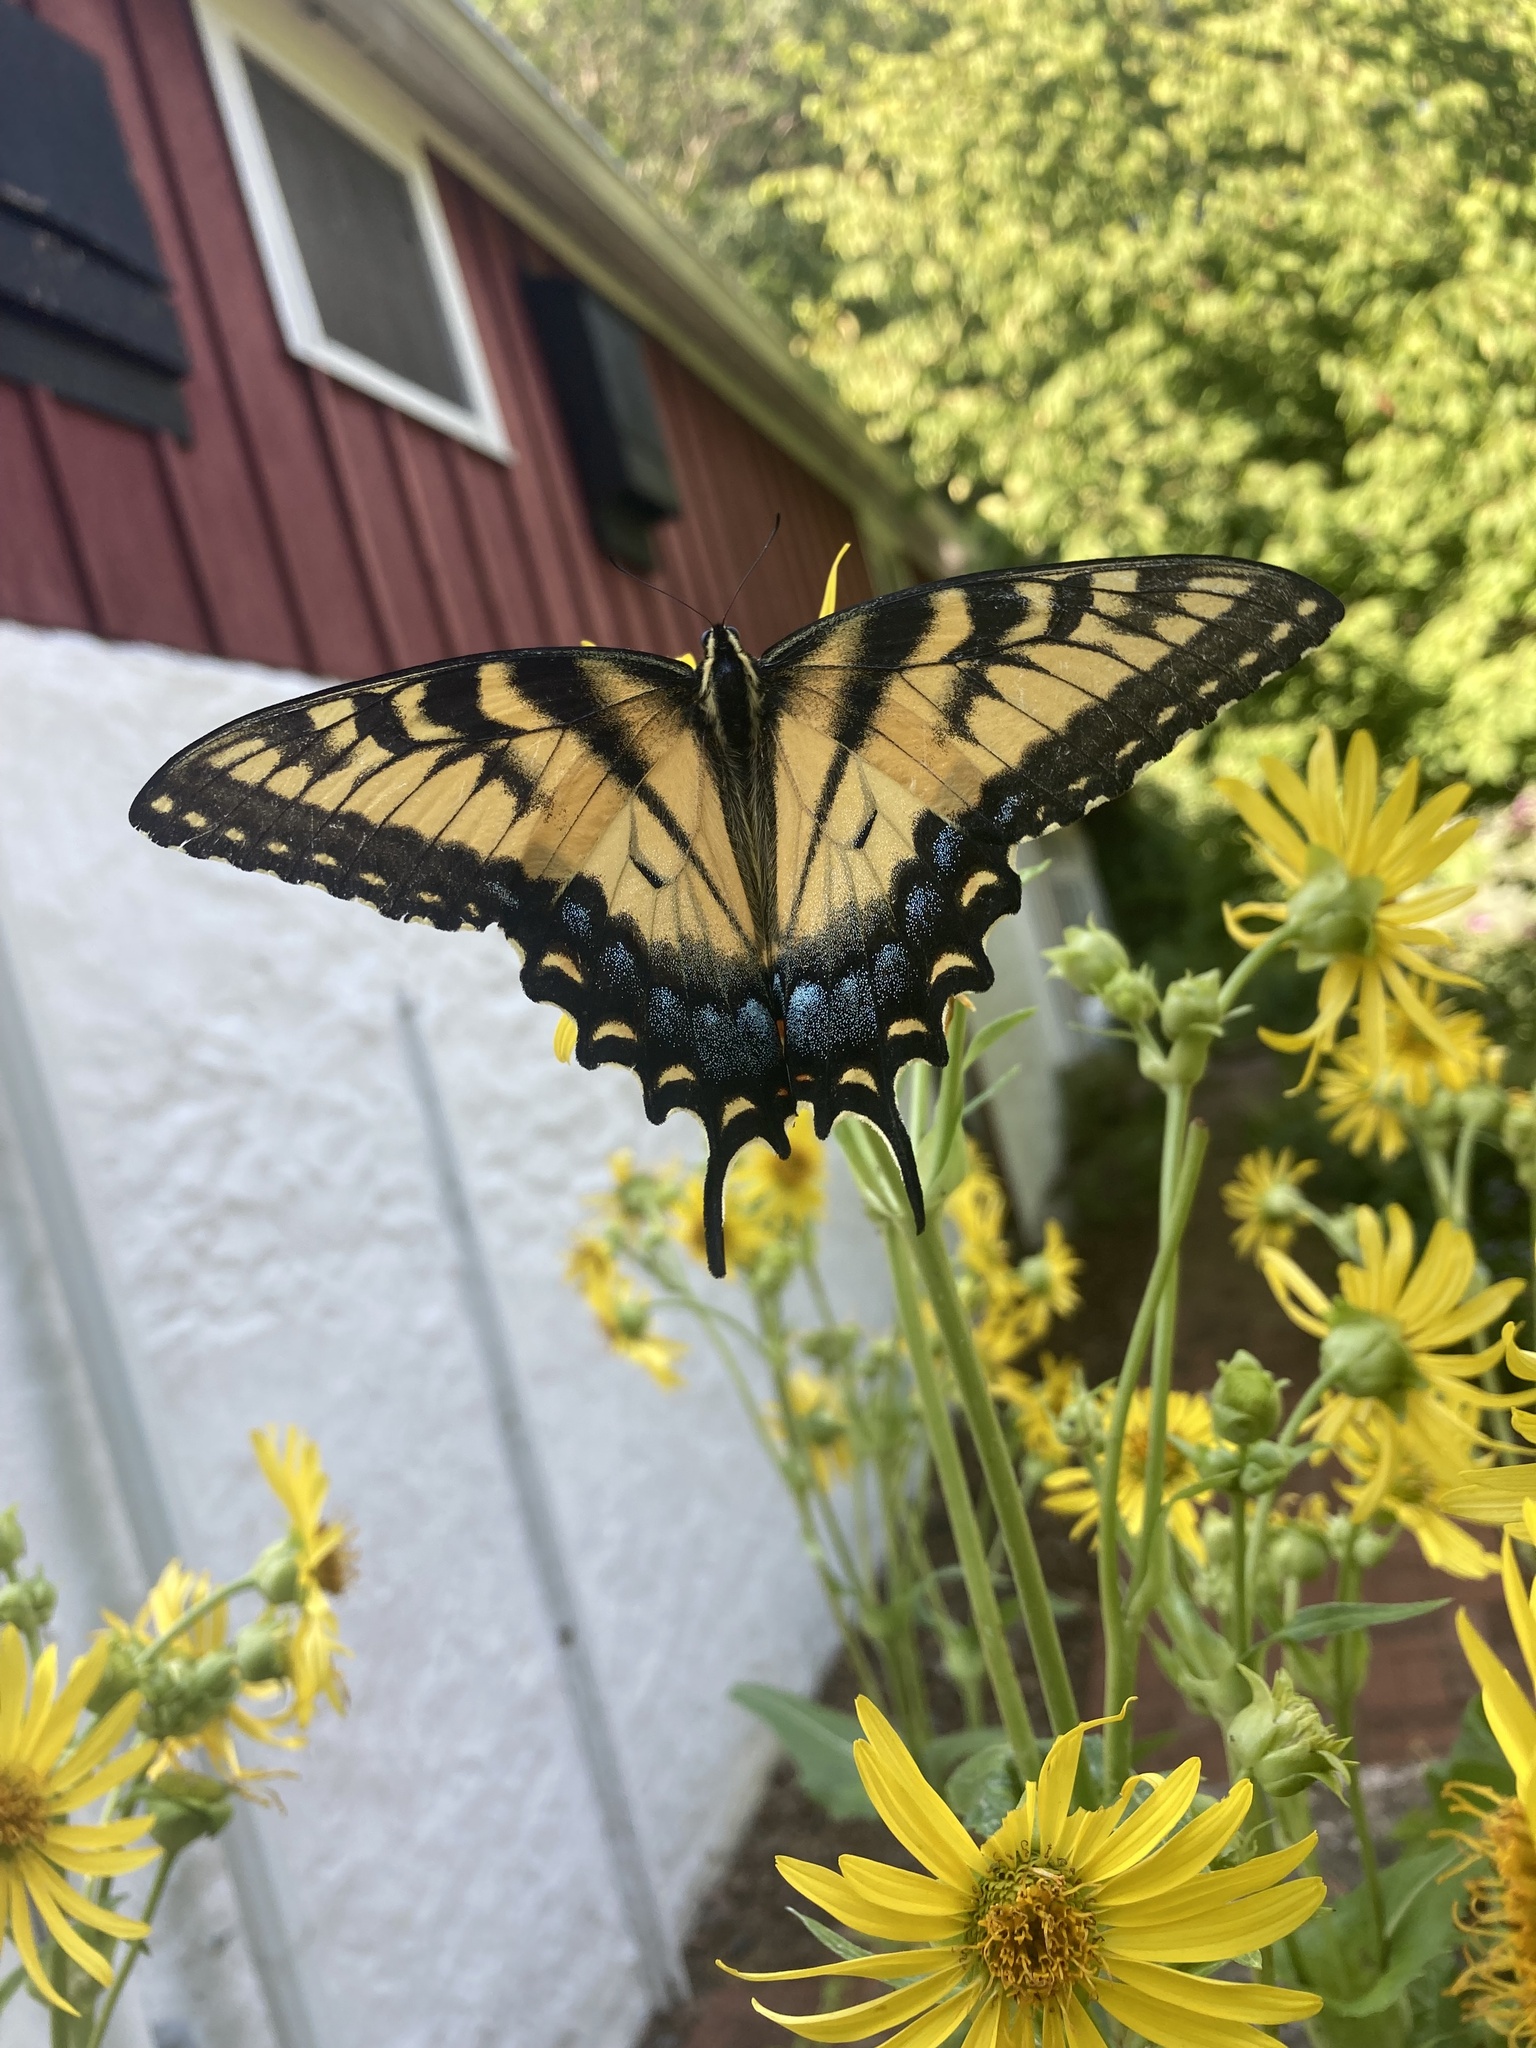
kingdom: Animalia
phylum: Arthropoda
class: Insecta
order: Lepidoptera
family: Papilionidae
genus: Papilio
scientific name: Papilio glaucus
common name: Tiger swallowtail
